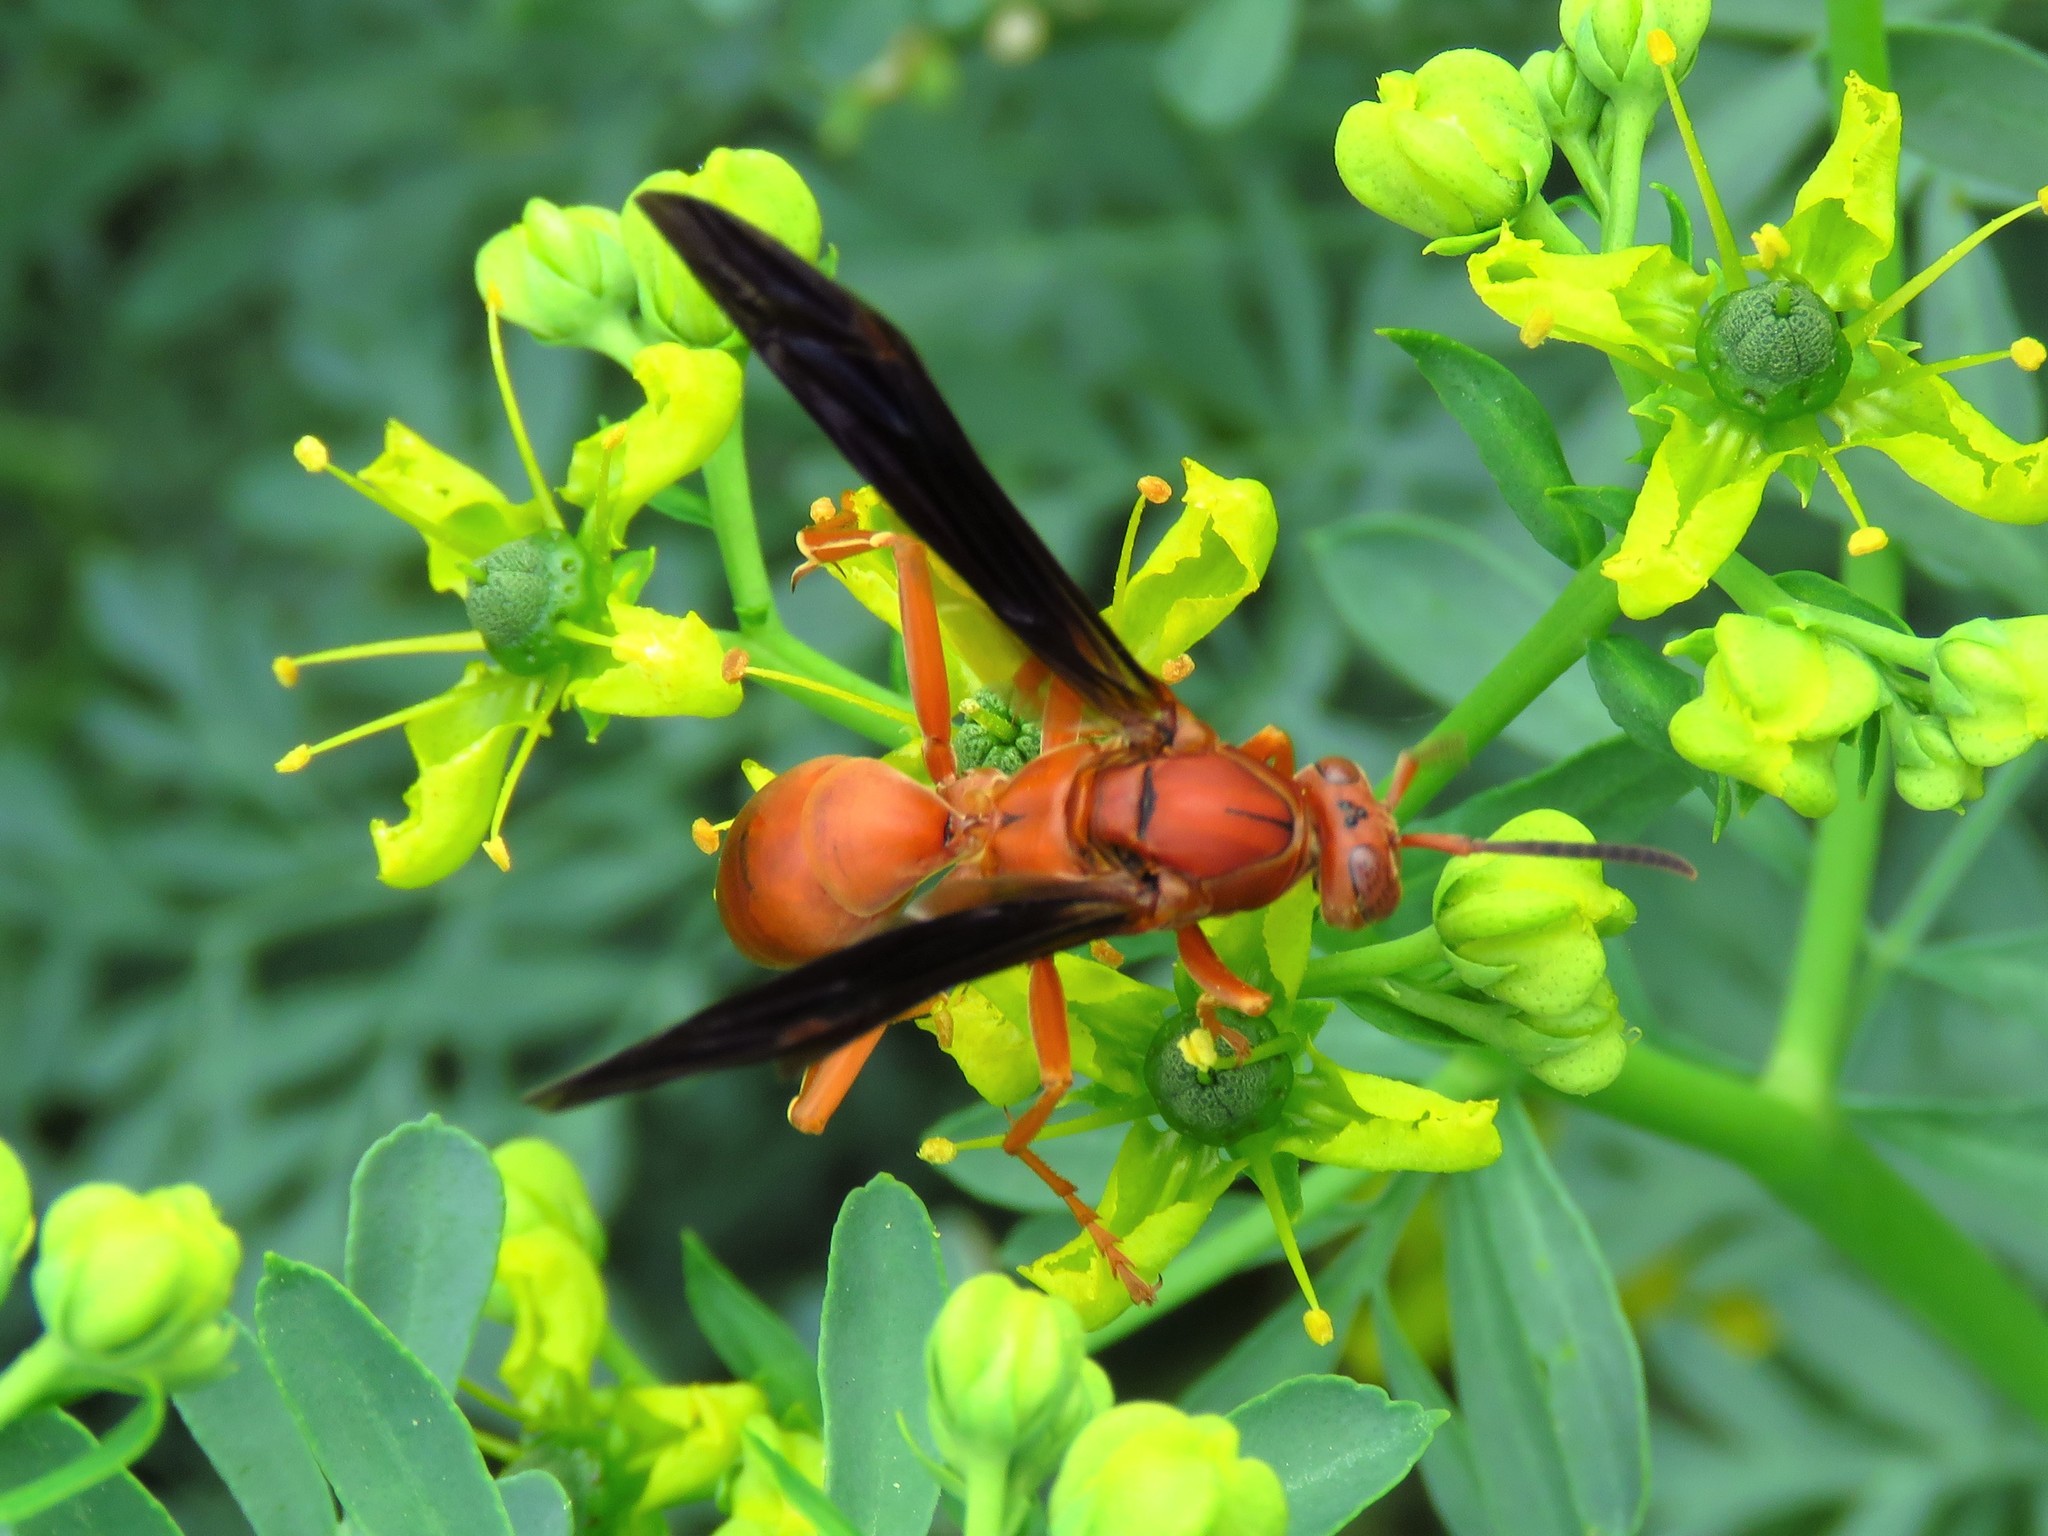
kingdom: Animalia
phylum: Arthropoda
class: Insecta
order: Hymenoptera
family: Vespidae
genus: Fuscopolistes
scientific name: Fuscopolistes
